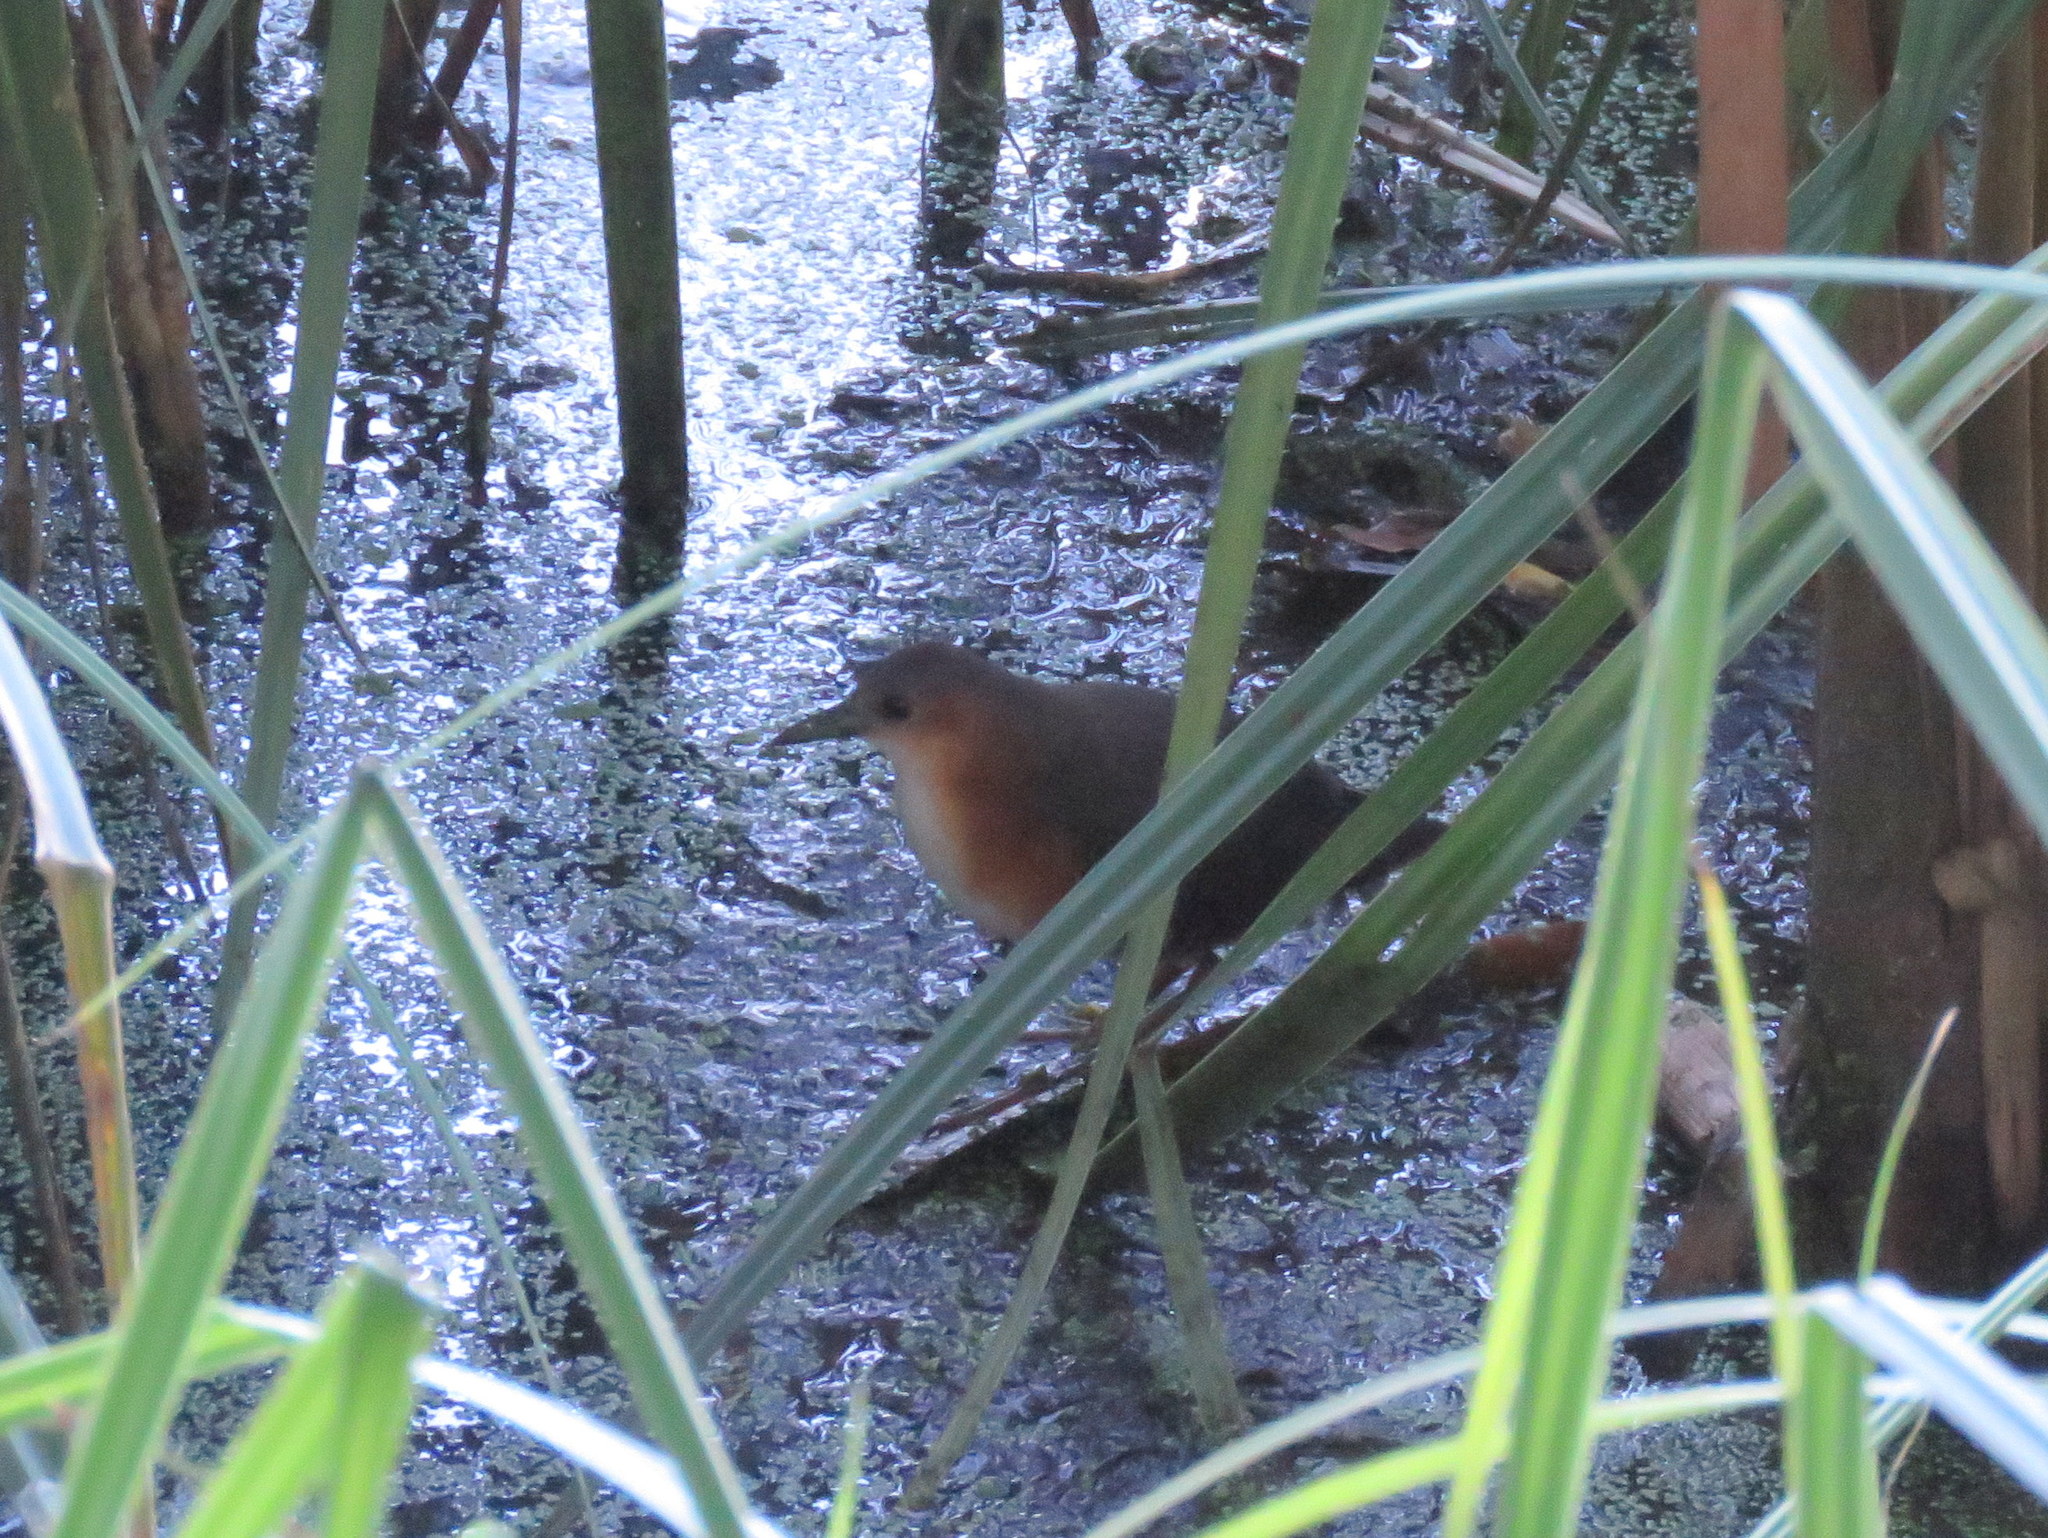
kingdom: Animalia
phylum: Chordata
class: Aves
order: Gruiformes
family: Rallidae
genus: Laterallus
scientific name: Laterallus melanophaius
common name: Rufous-sided crake
